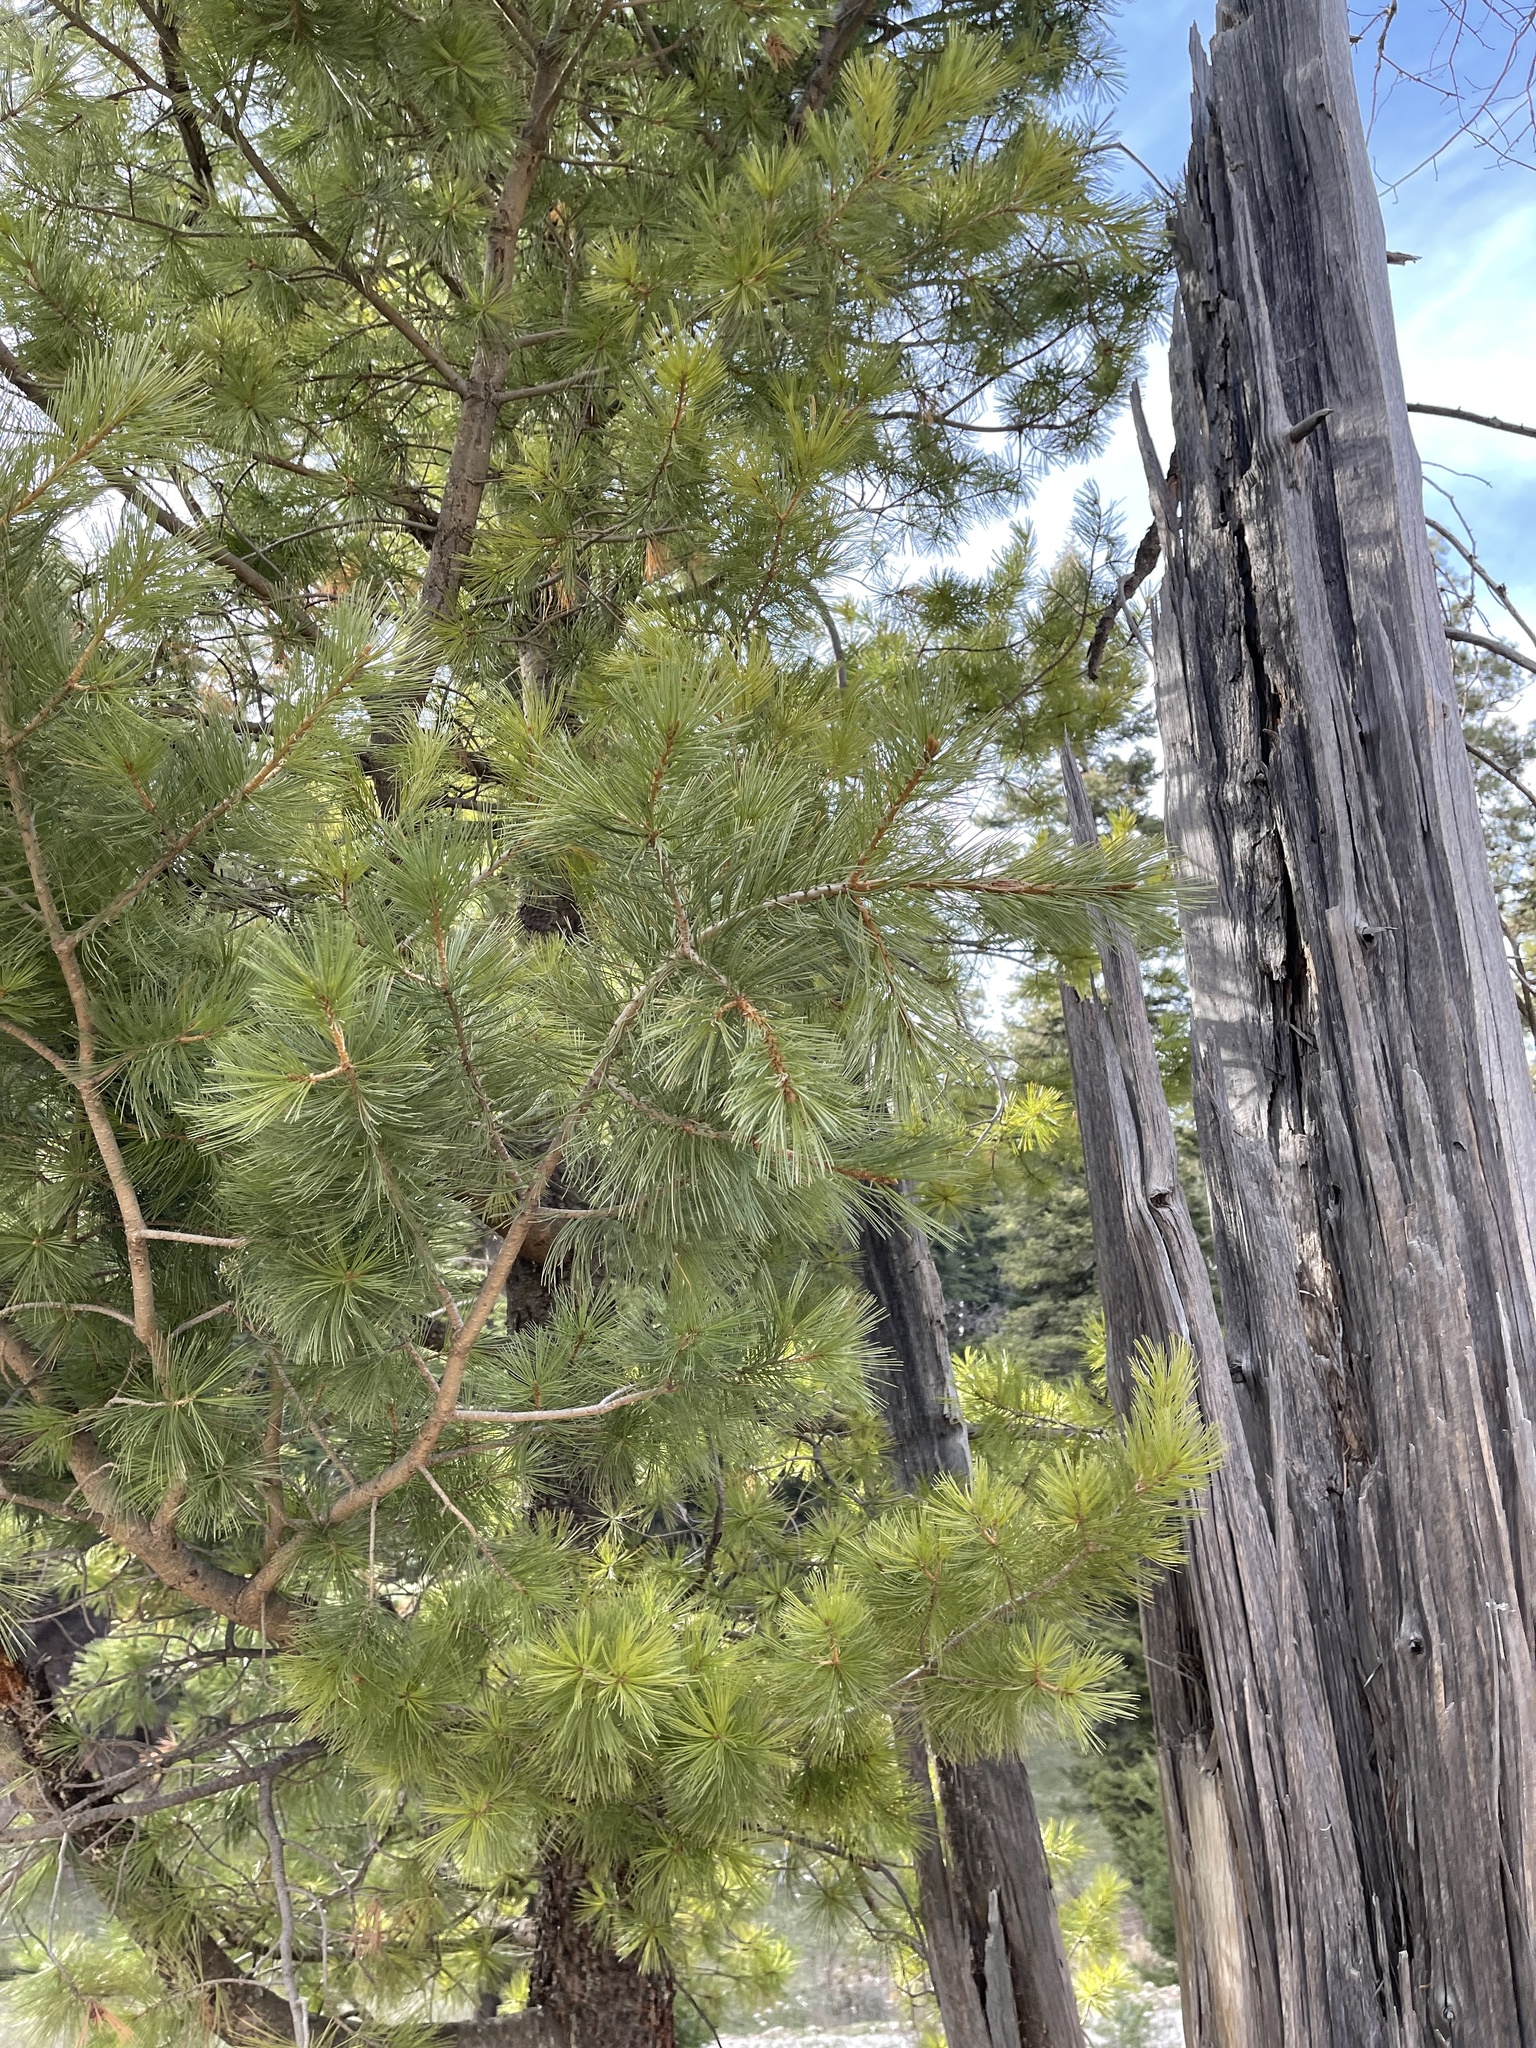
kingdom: Plantae
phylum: Tracheophyta
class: Pinopsida
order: Pinales
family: Pinaceae
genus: Pinus
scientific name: Pinus strobiformis
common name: Southwestern white pine
